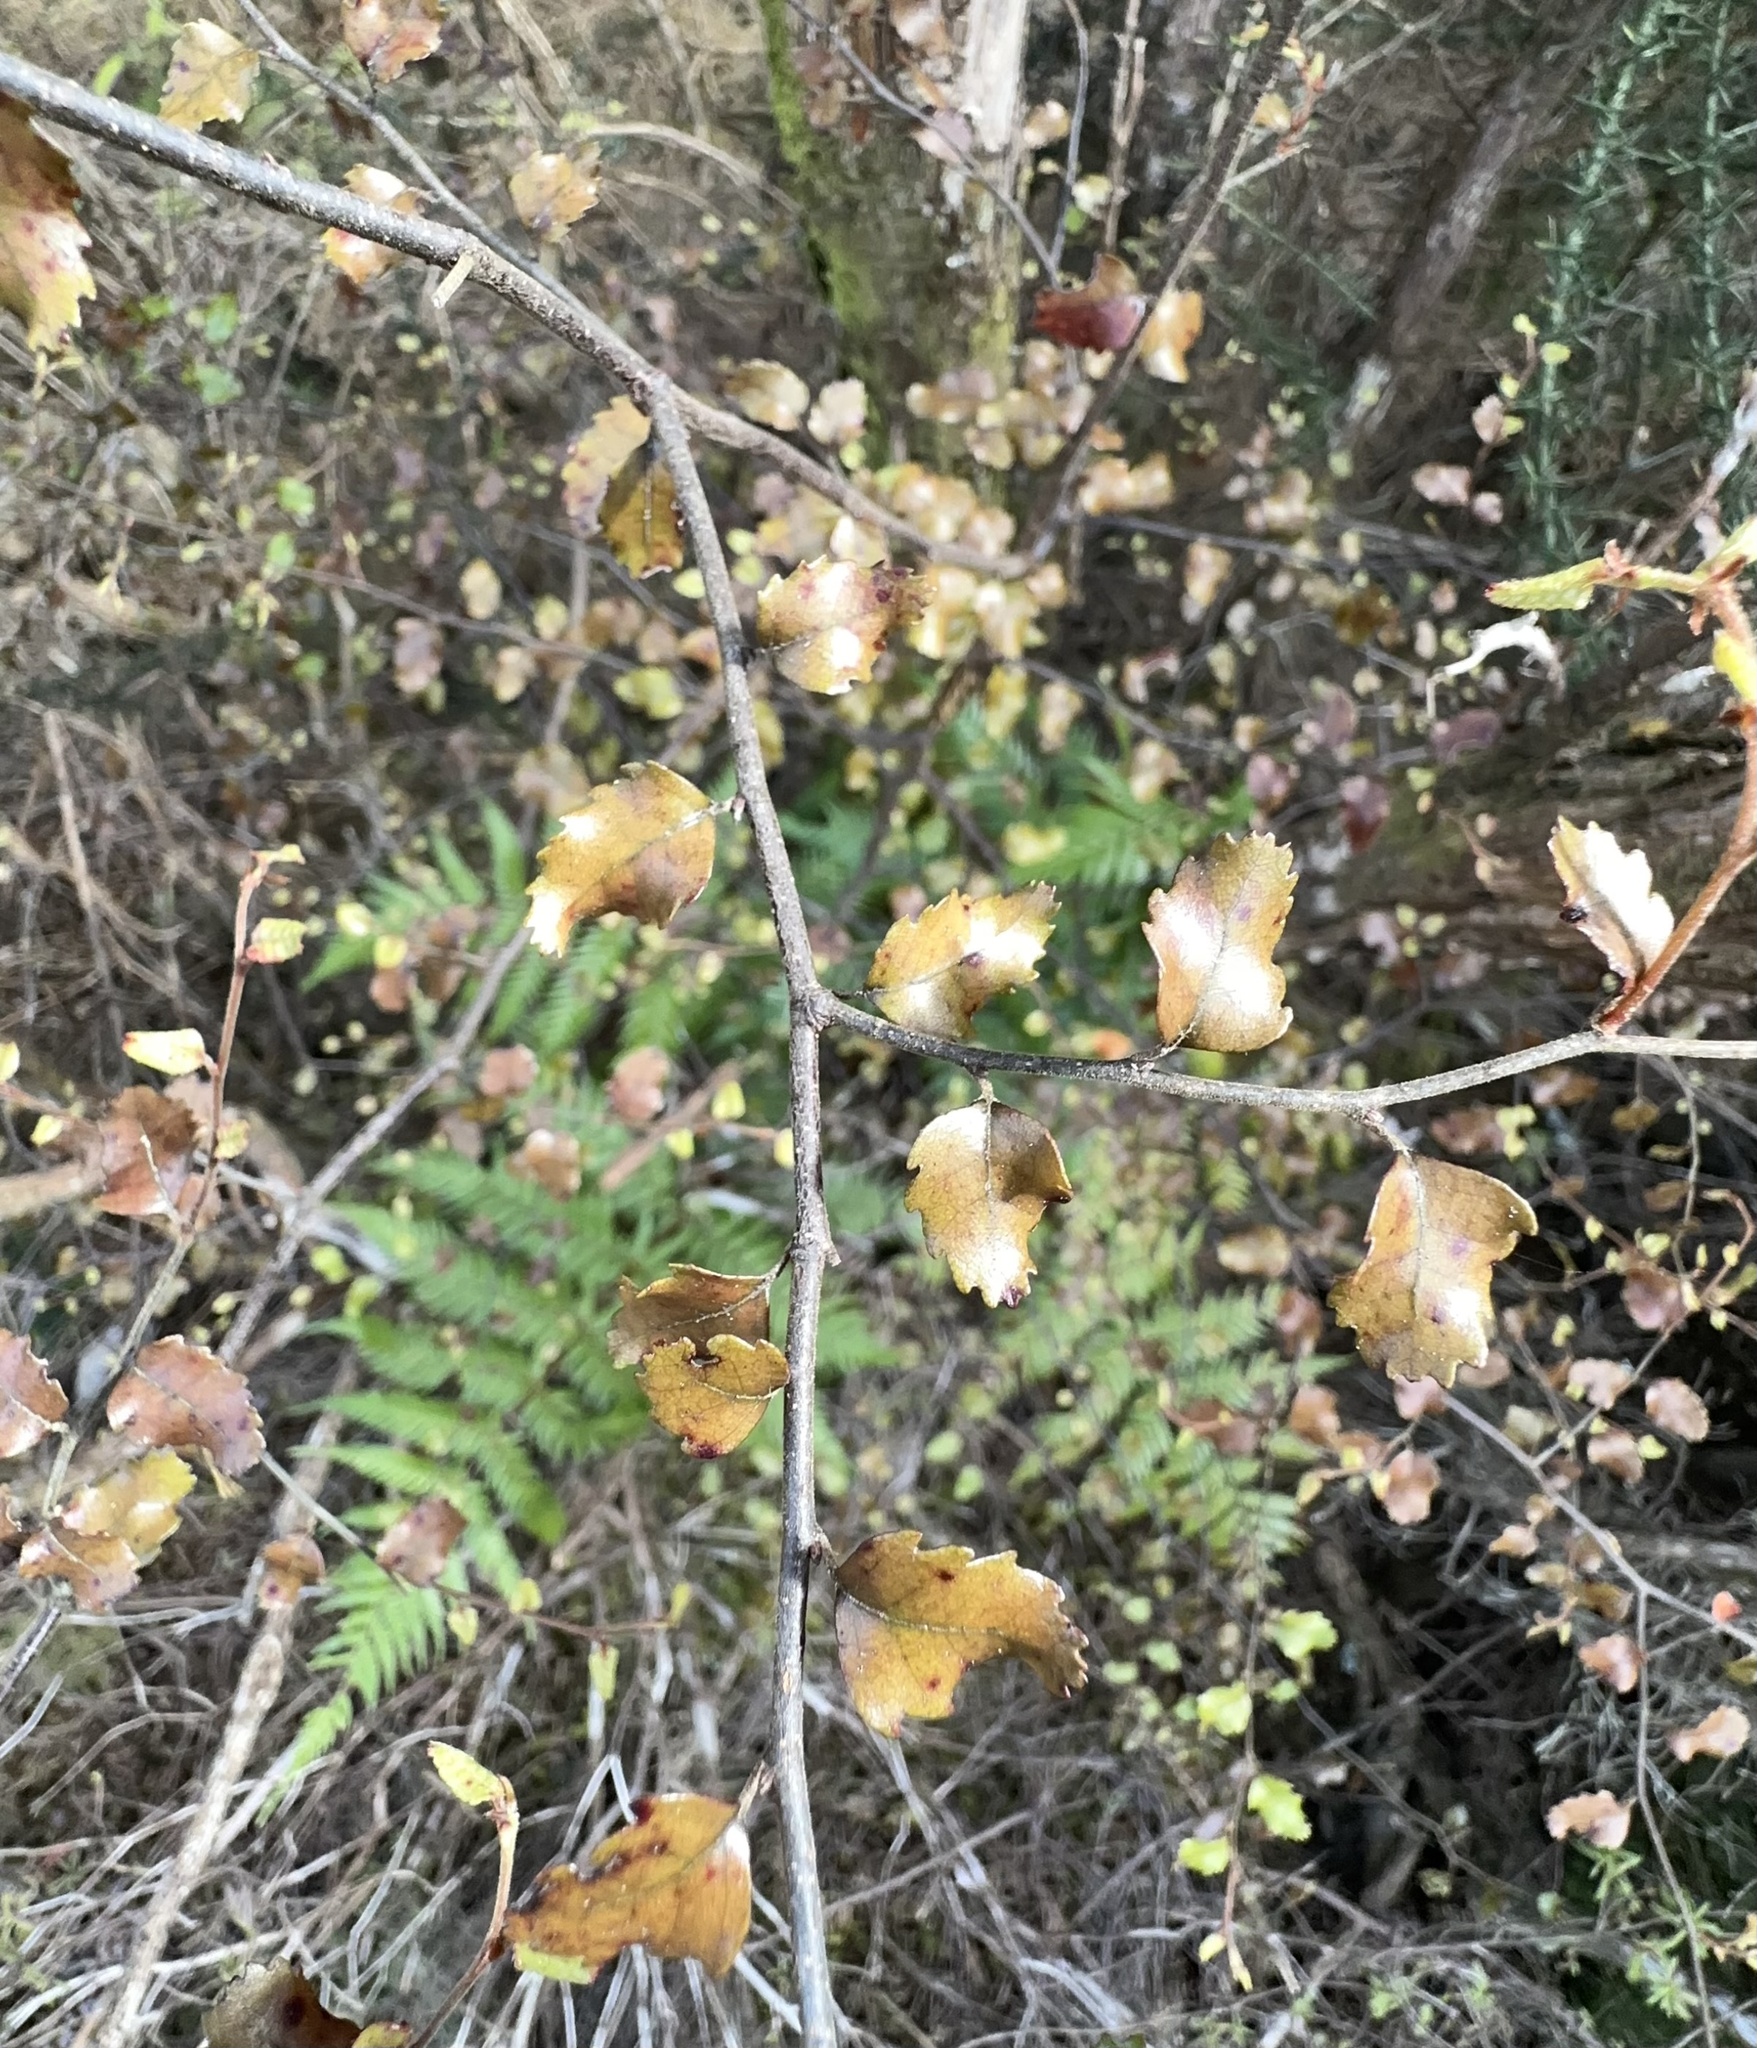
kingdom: Plantae
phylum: Tracheophyta
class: Magnoliopsida
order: Fagales
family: Nothofagaceae
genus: Nothofagus
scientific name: Nothofagus truncata
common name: Hard beech
